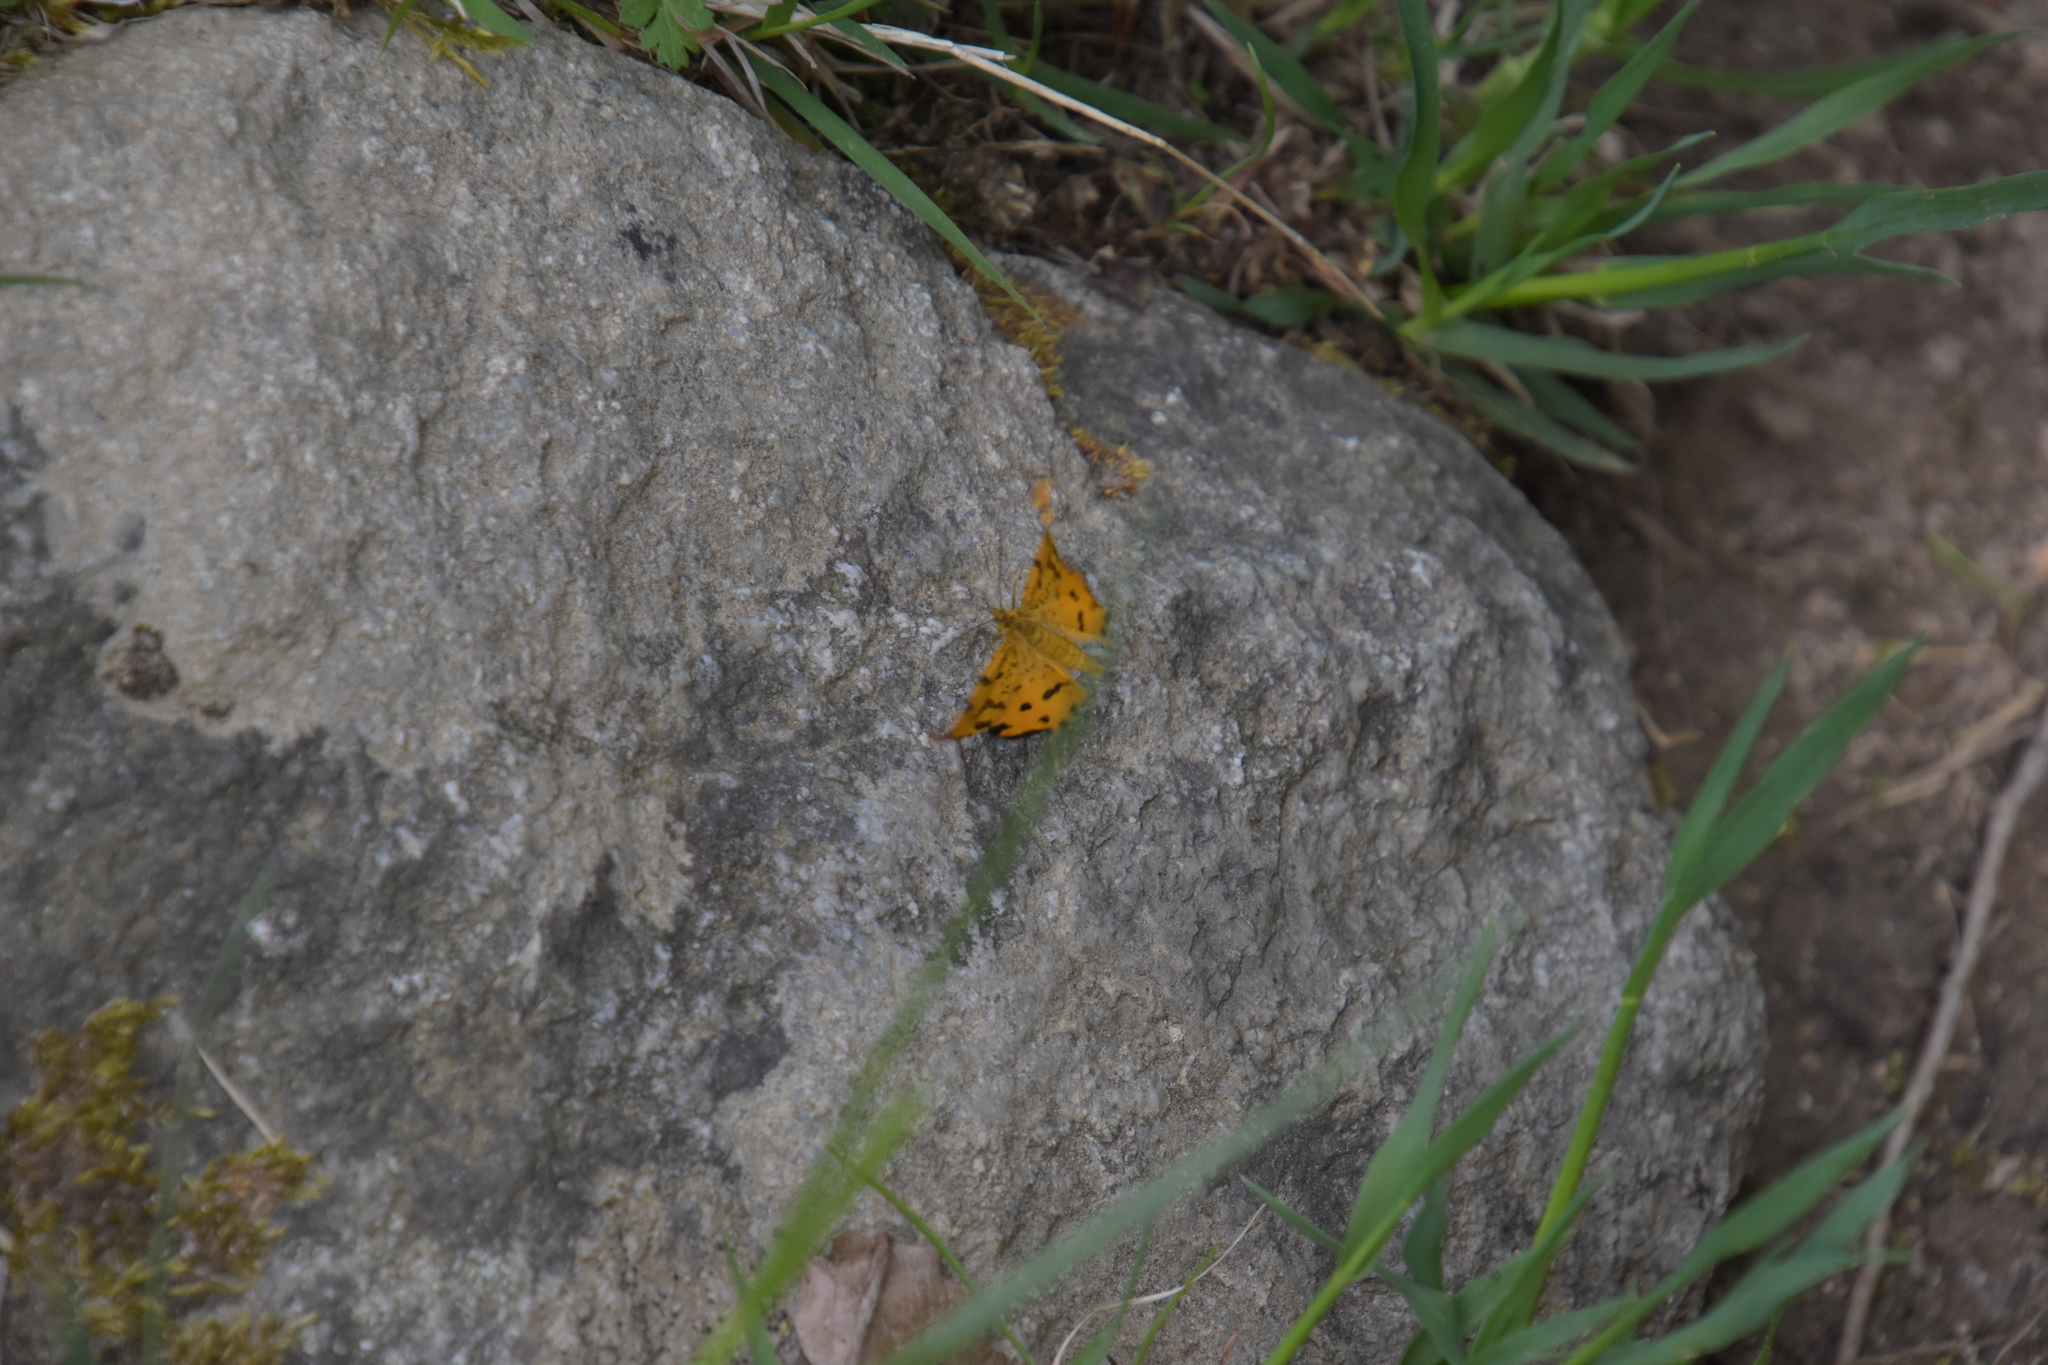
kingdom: Animalia
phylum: Arthropoda
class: Insecta
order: Lepidoptera
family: Geometridae
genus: Pseudopanthera
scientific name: Pseudopanthera macularia
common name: Speckled yellow
